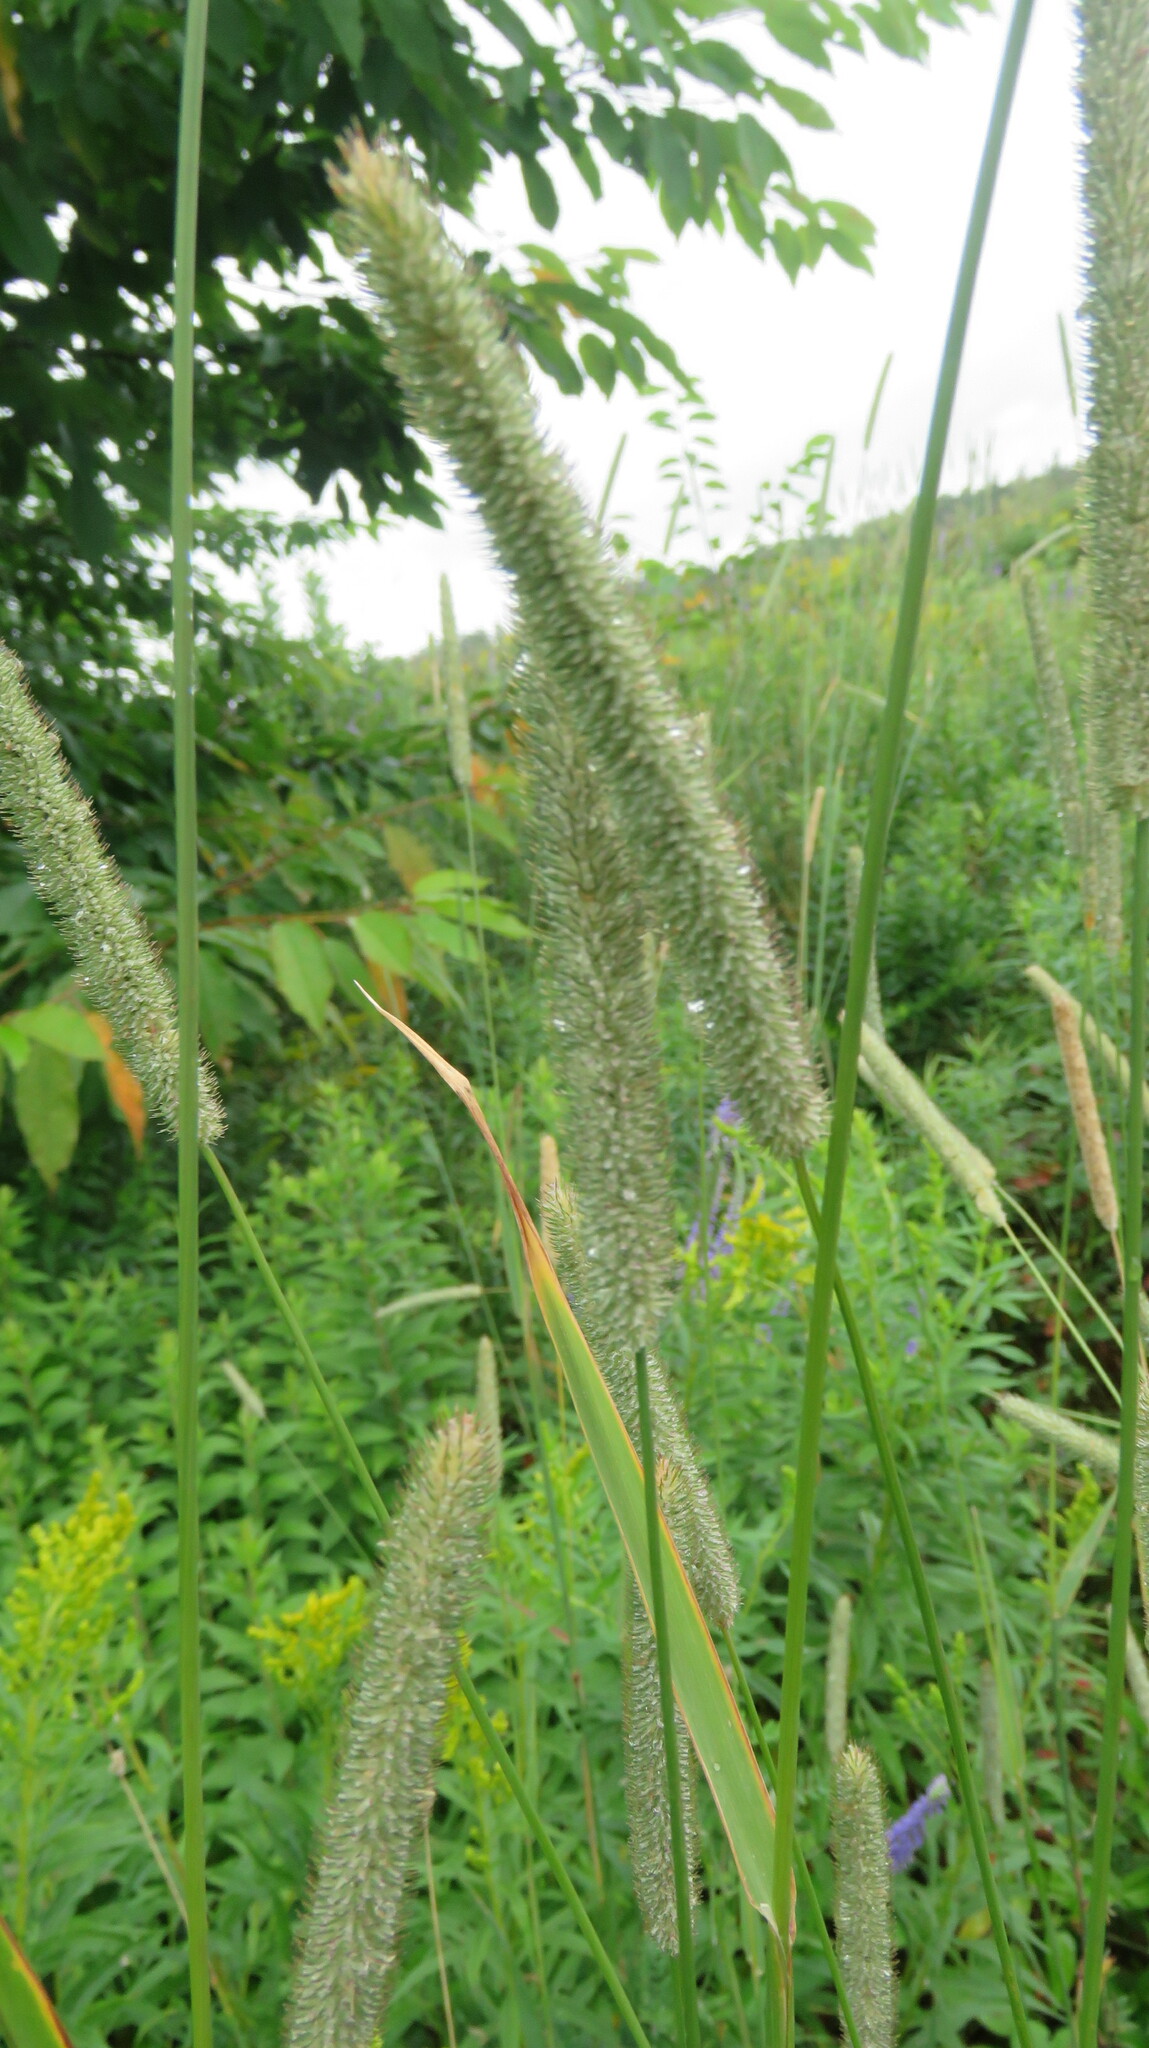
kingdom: Plantae
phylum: Tracheophyta
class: Liliopsida
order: Poales
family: Poaceae
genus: Phleum
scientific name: Phleum pratense
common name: Timothy grass
